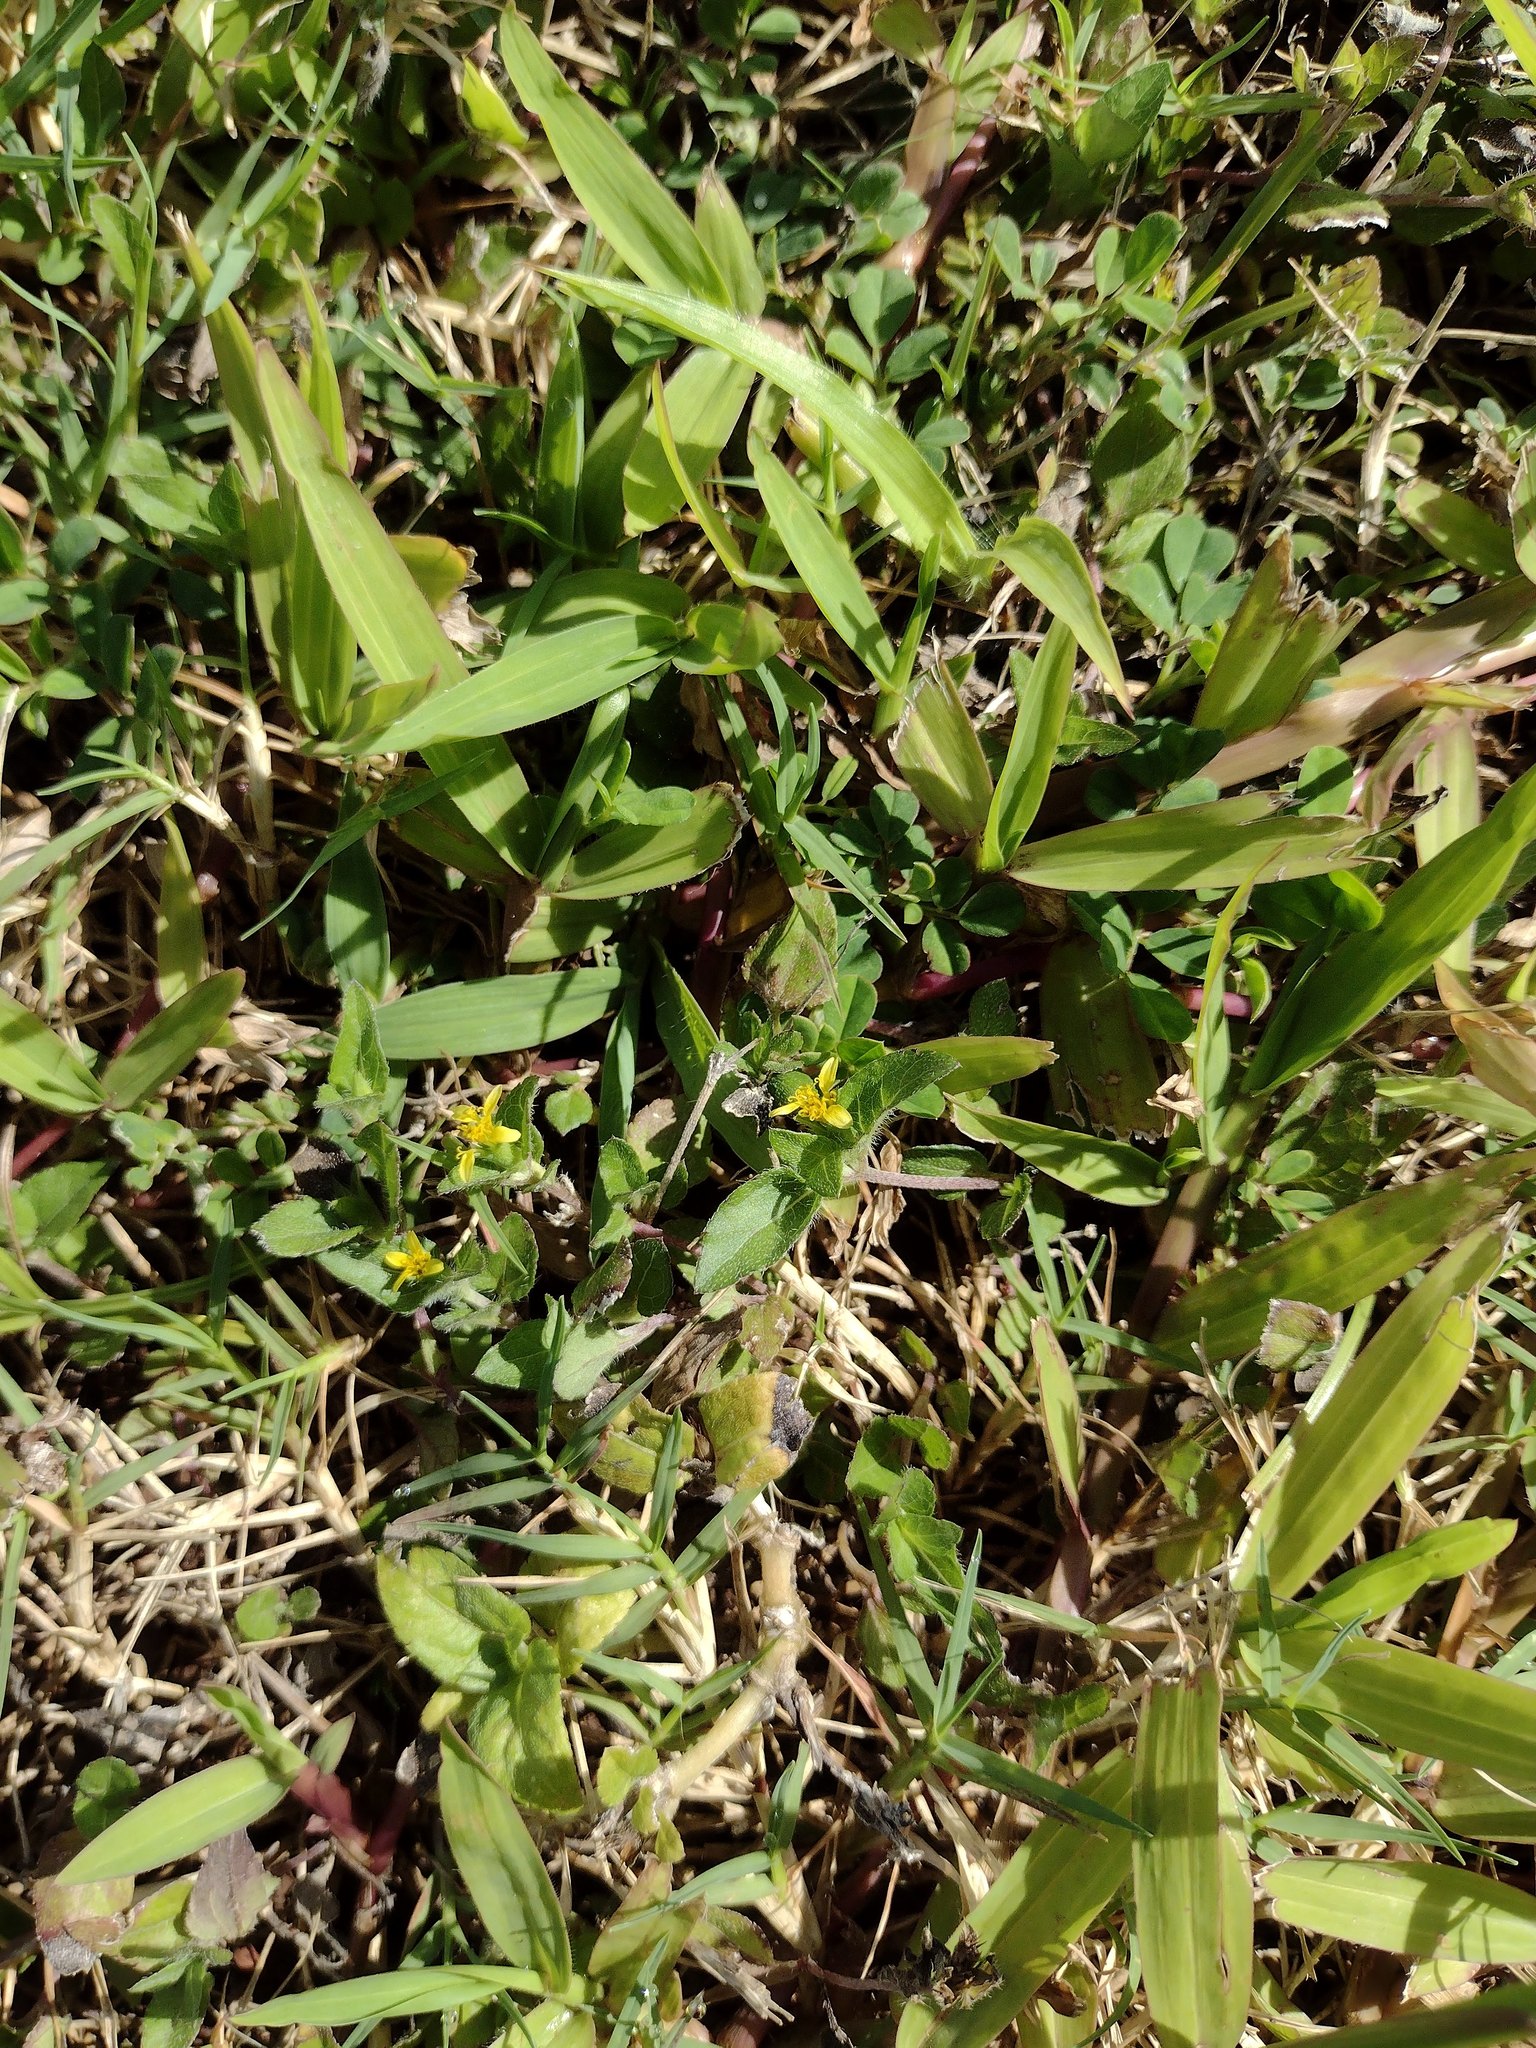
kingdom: Plantae
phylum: Tracheophyta
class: Magnoliopsida
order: Asterales
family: Asteraceae
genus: Calyptocarpus
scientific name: Calyptocarpus vialis
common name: Straggler daisy
